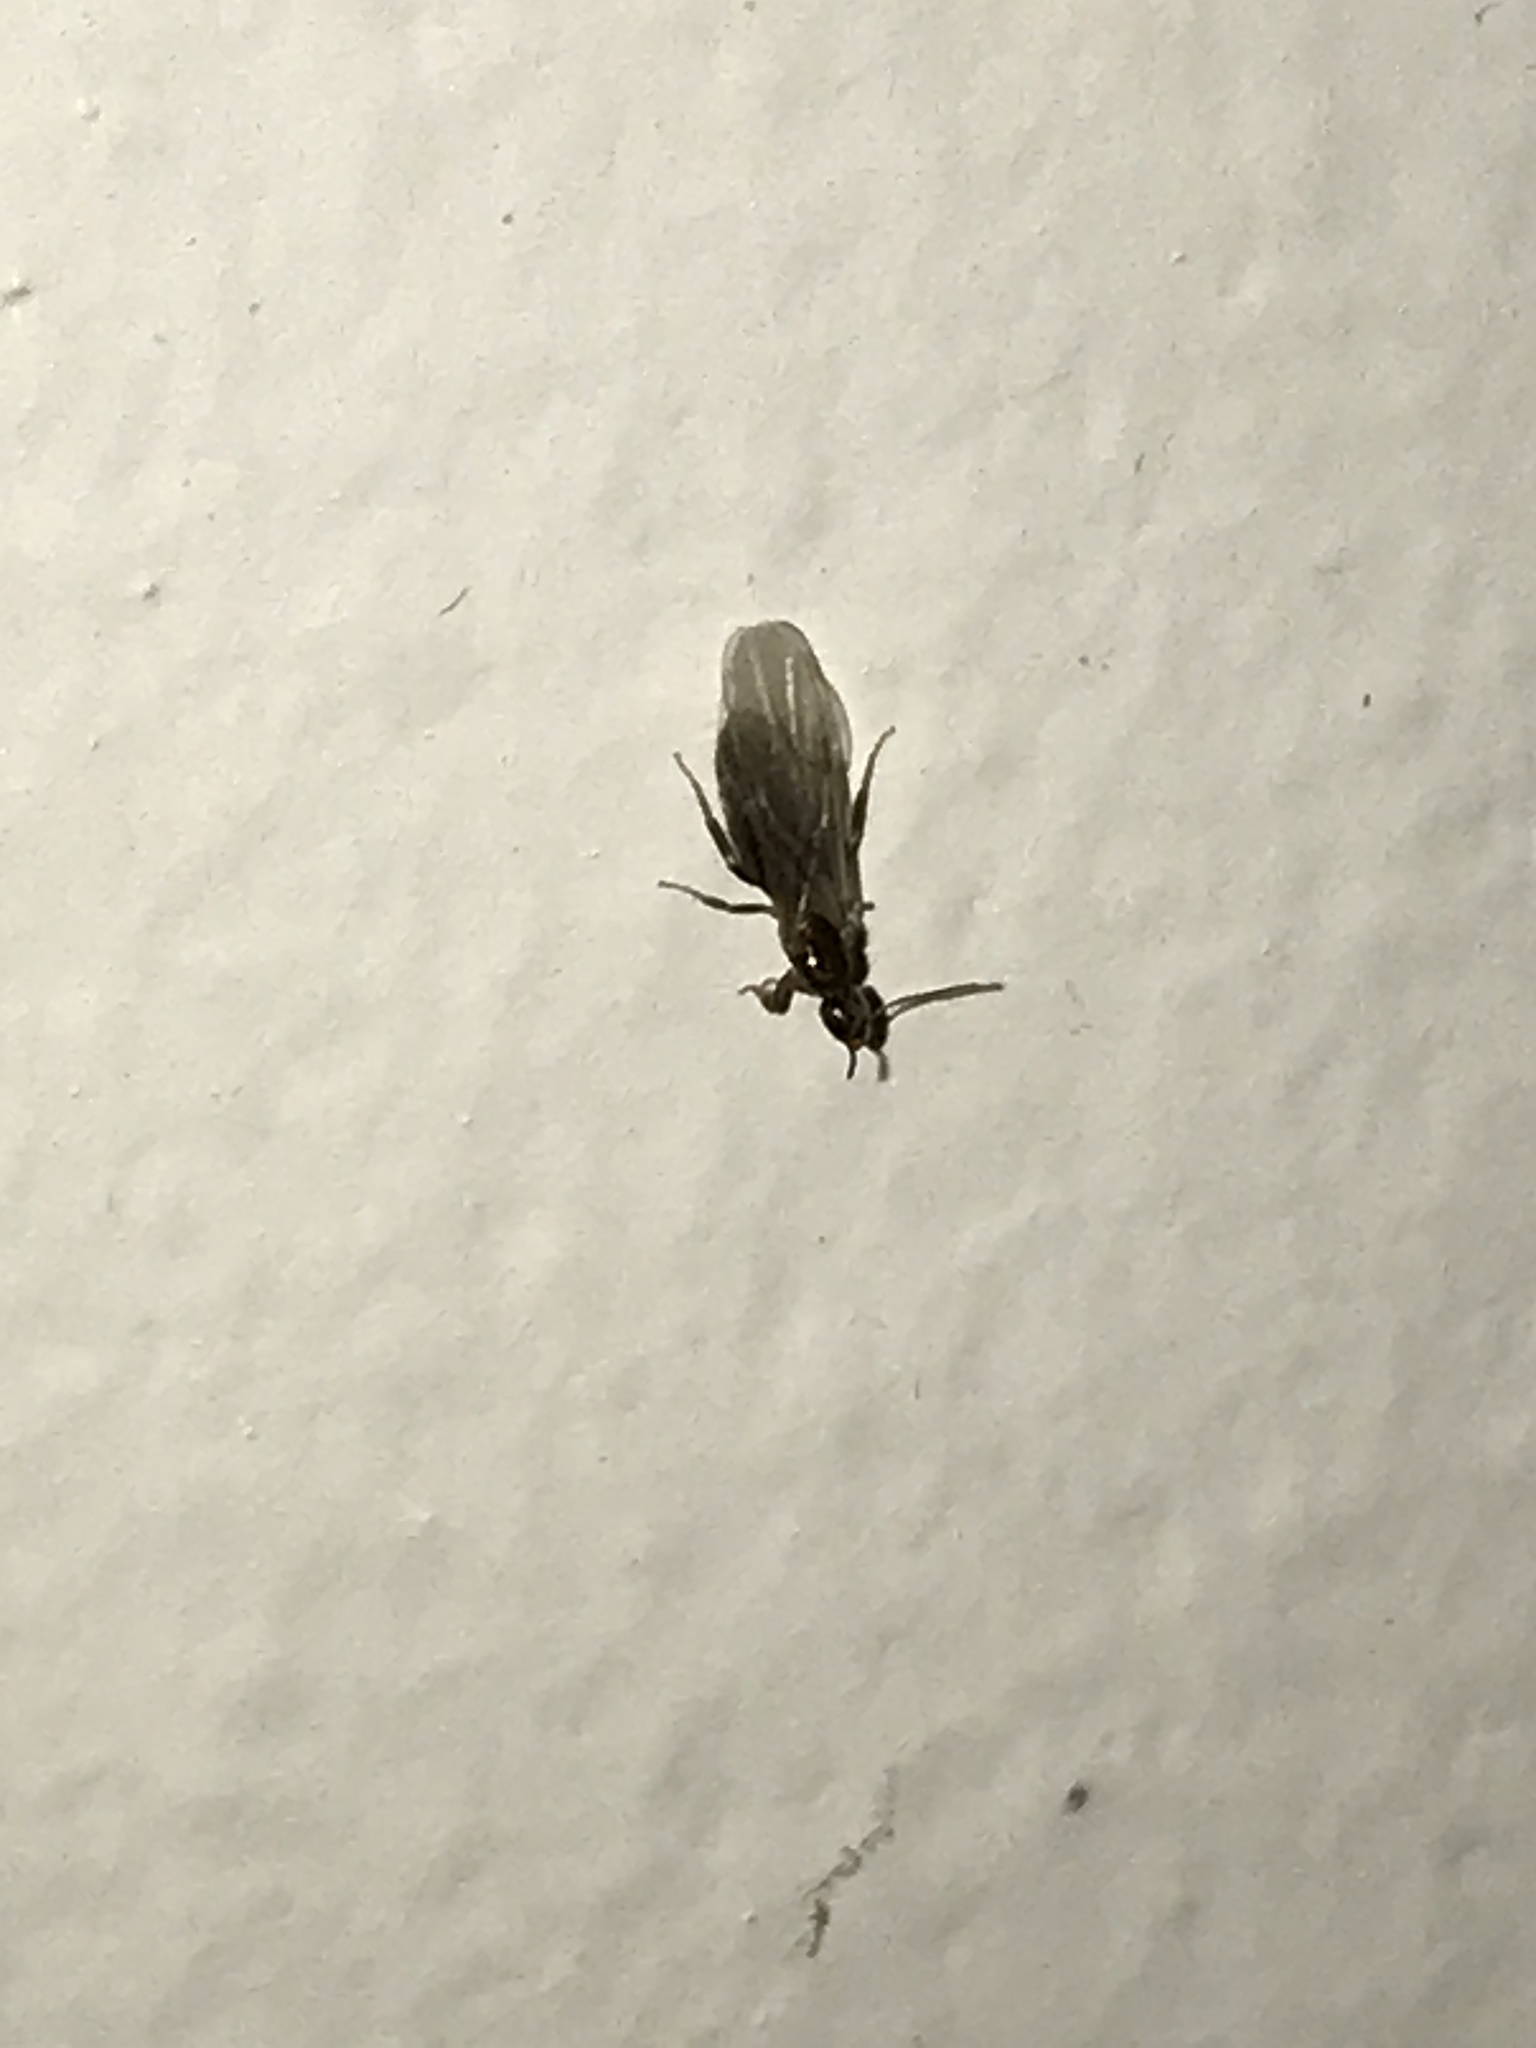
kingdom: Animalia
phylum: Arthropoda
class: Insecta
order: Hymenoptera
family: Formicidae
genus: Brachymyrmex
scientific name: Brachymyrmex patagonicus
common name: Dark rover ant
